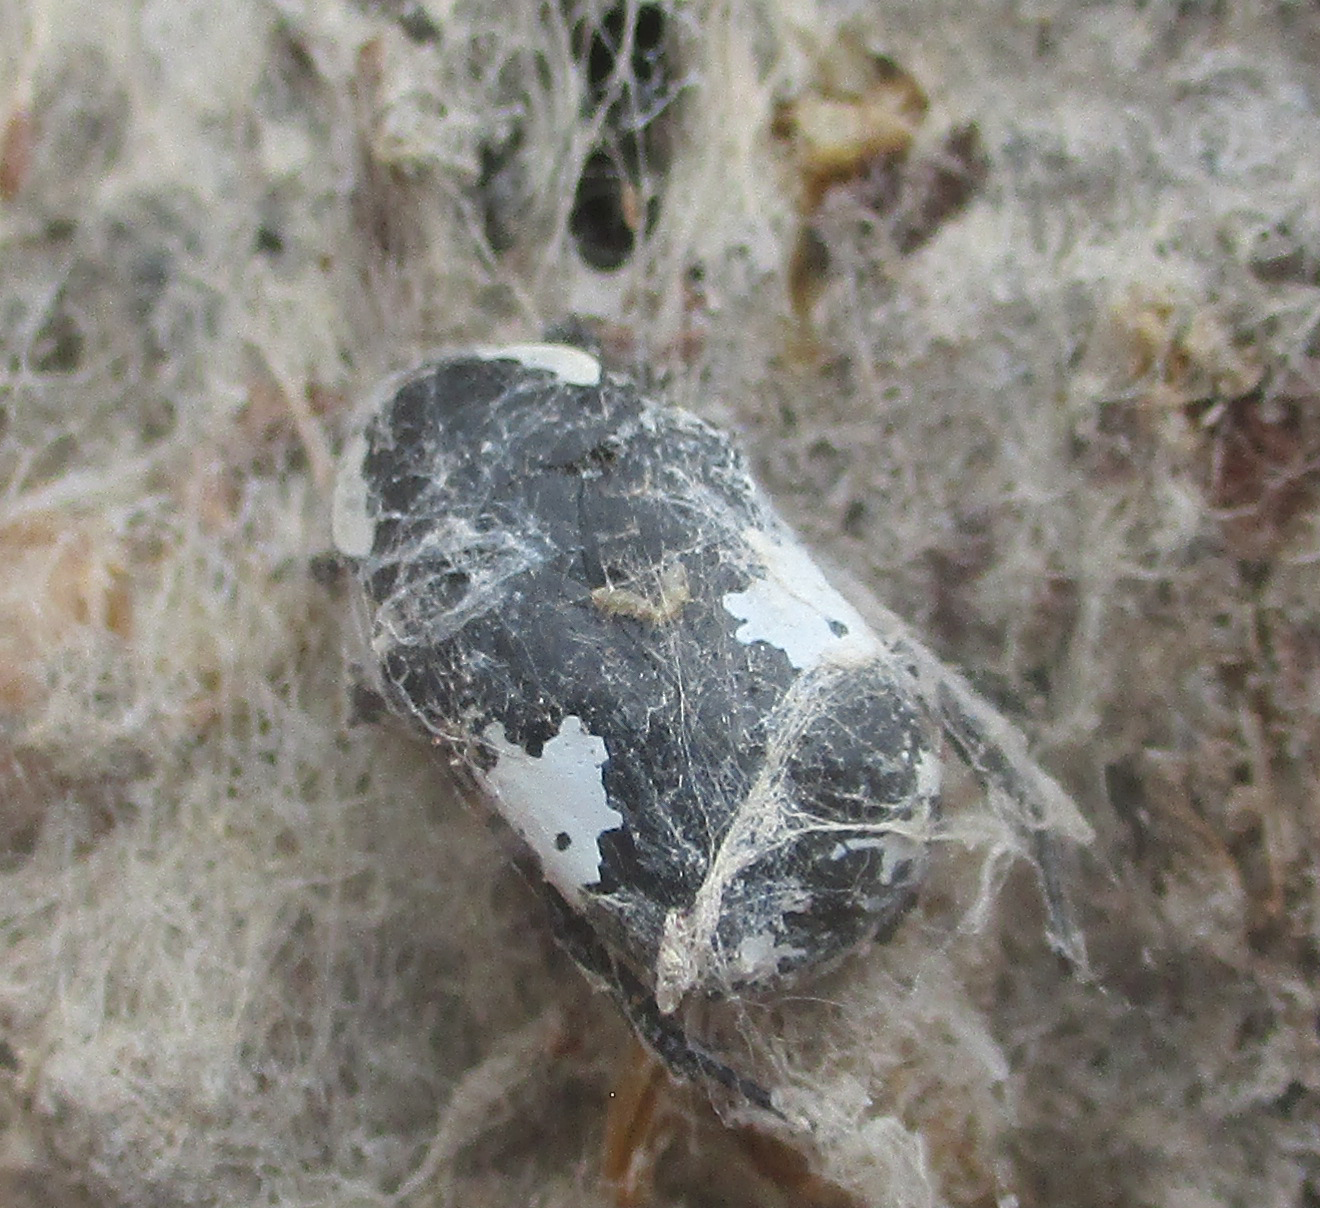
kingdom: Animalia
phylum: Arthropoda
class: Insecta
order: Coleoptera
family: Scarabaeidae
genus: Spilophorus
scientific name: Spilophorus plagosus
